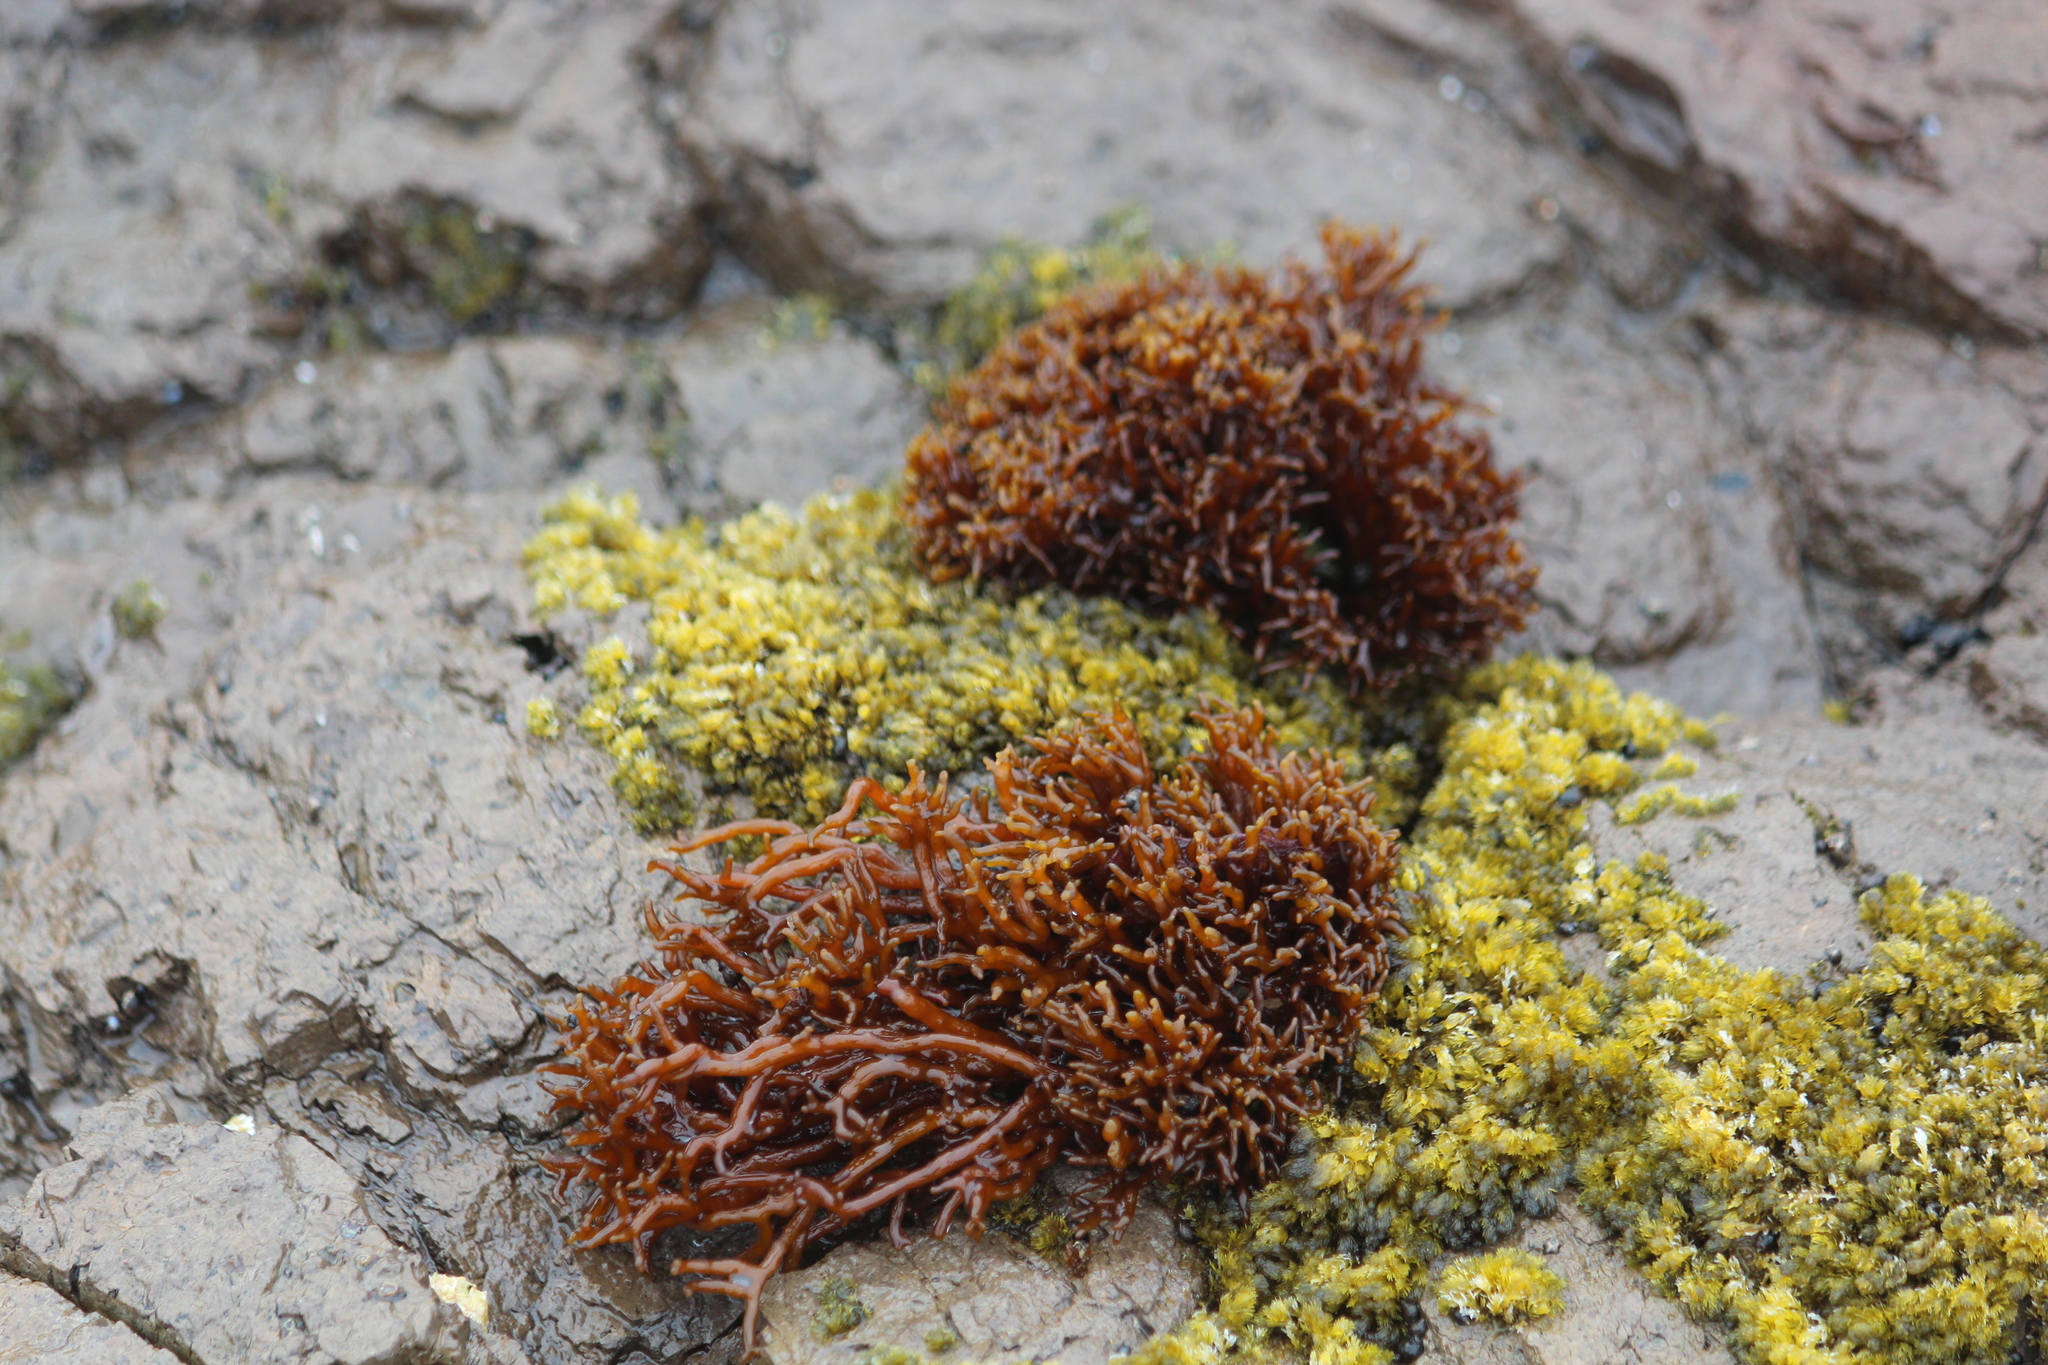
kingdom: Plantae
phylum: Rhodophyta
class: Florideophyceae
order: Hildenbrandiales
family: Hildenbrandiaceae
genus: Apophlaea
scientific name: Apophlaea lyallii
